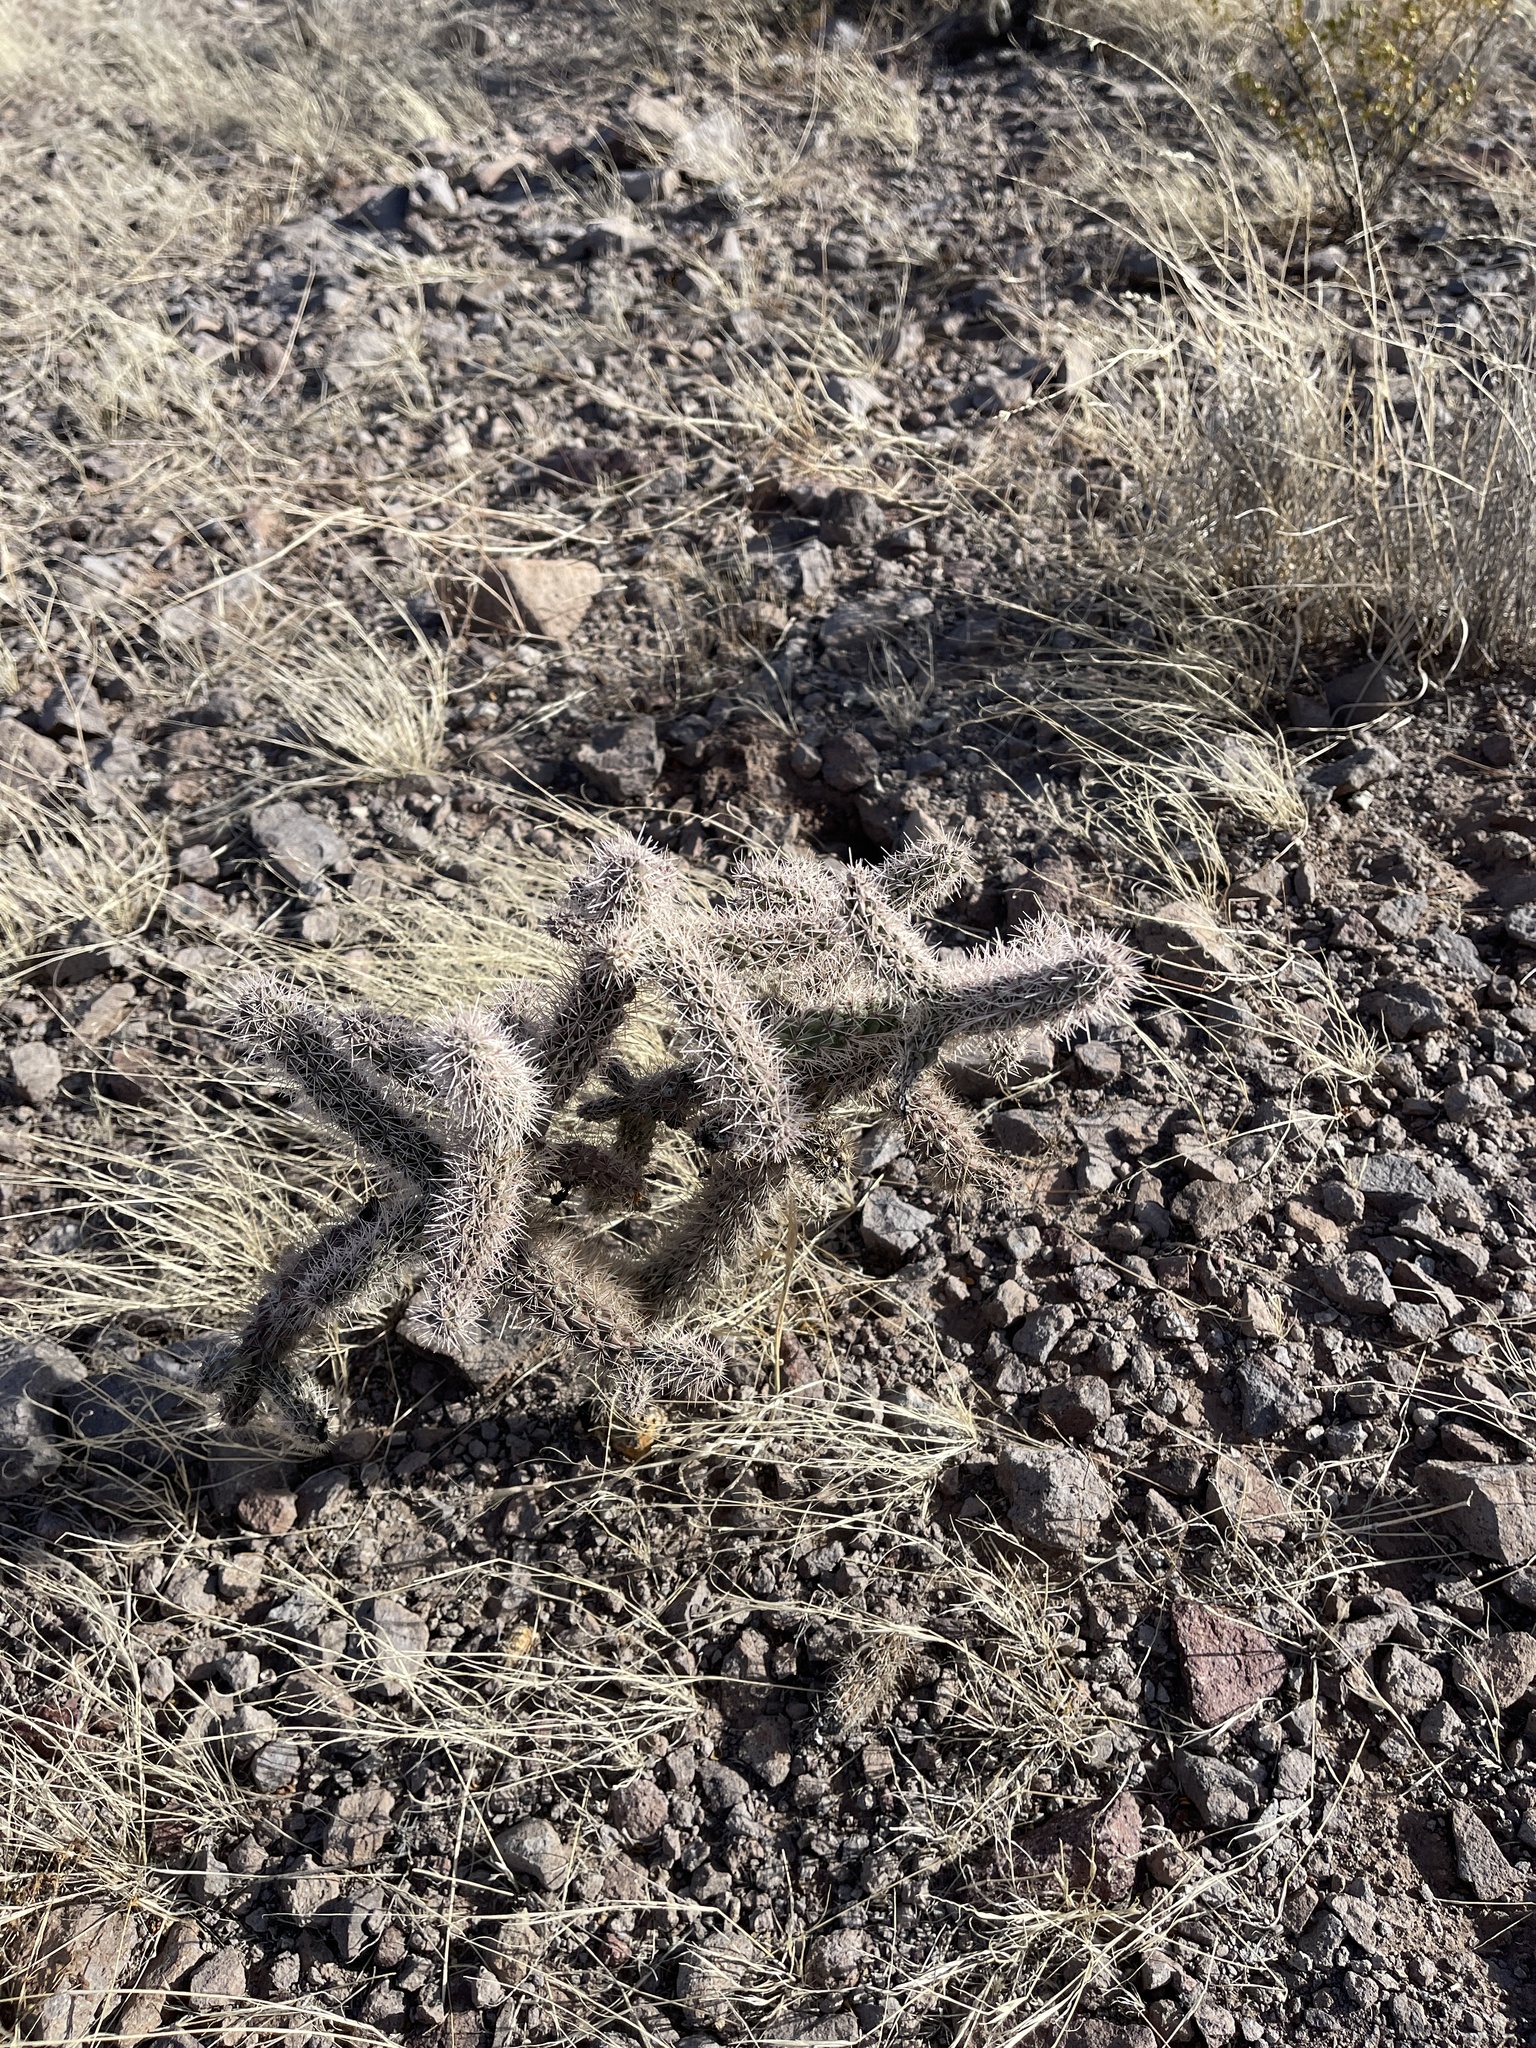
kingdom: Plantae
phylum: Tracheophyta
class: Magnoliopsida
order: Caryophyllales
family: Cactaceae
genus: Cylindropuntia
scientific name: Cylindropuntia imbricata
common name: Candelabrum cactus
